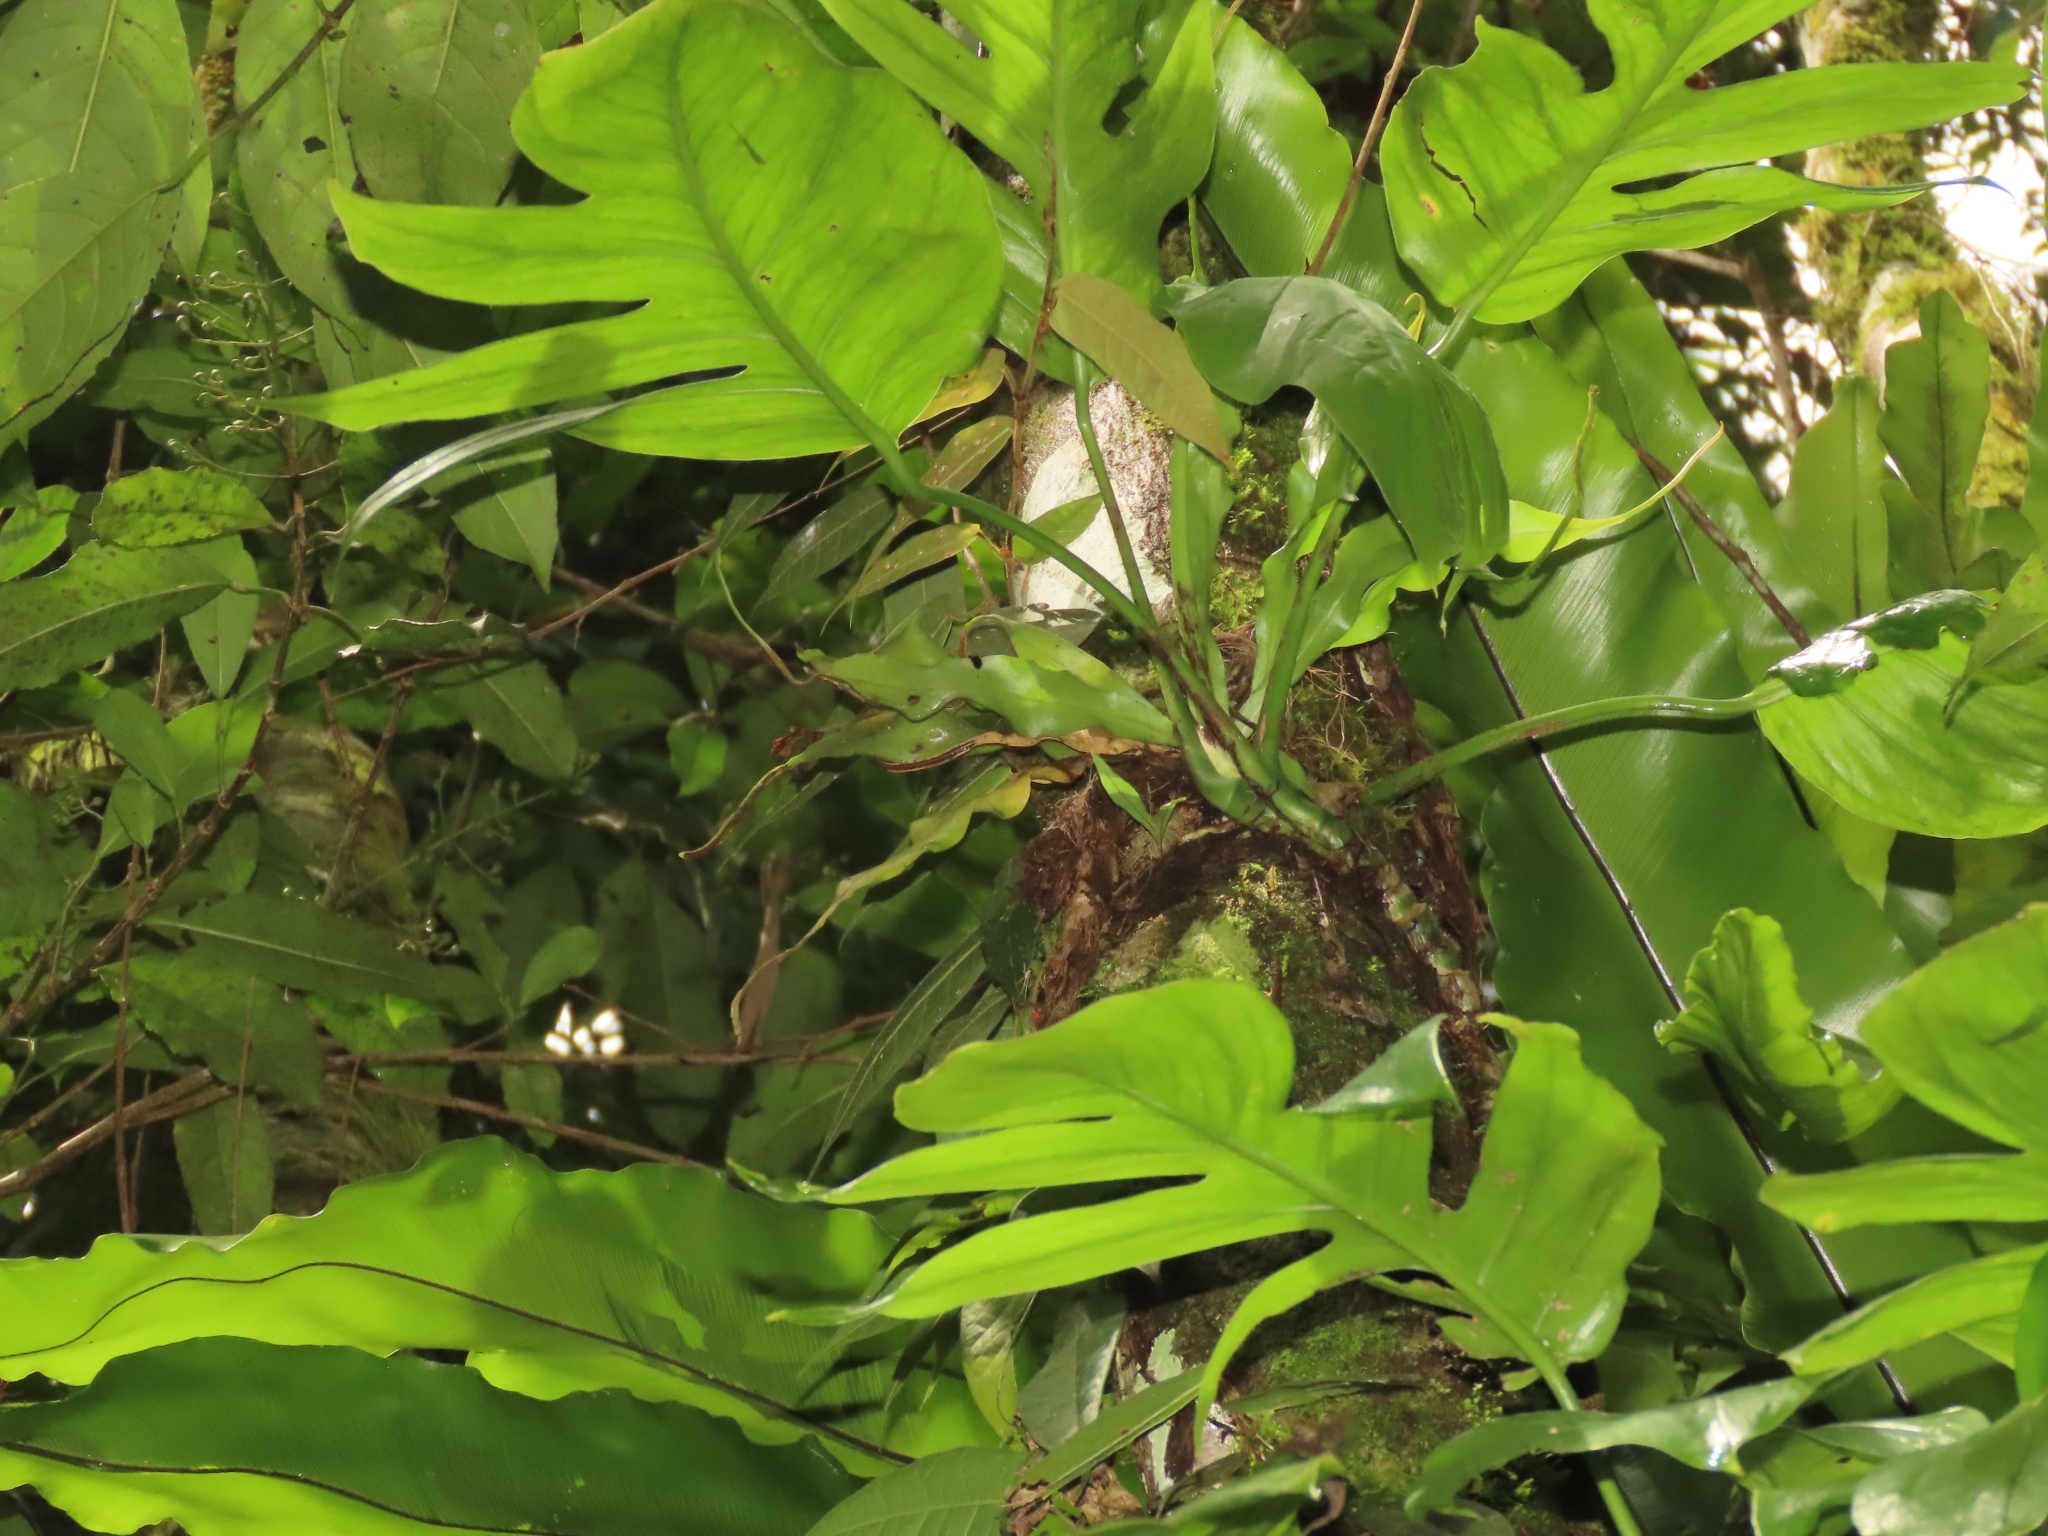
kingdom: Plantae
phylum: Tracheophyta
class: Polypodiopsida
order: Polypodiales
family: Polypodiaceae
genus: Lepisorus
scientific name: Lepisorus mucronatus
